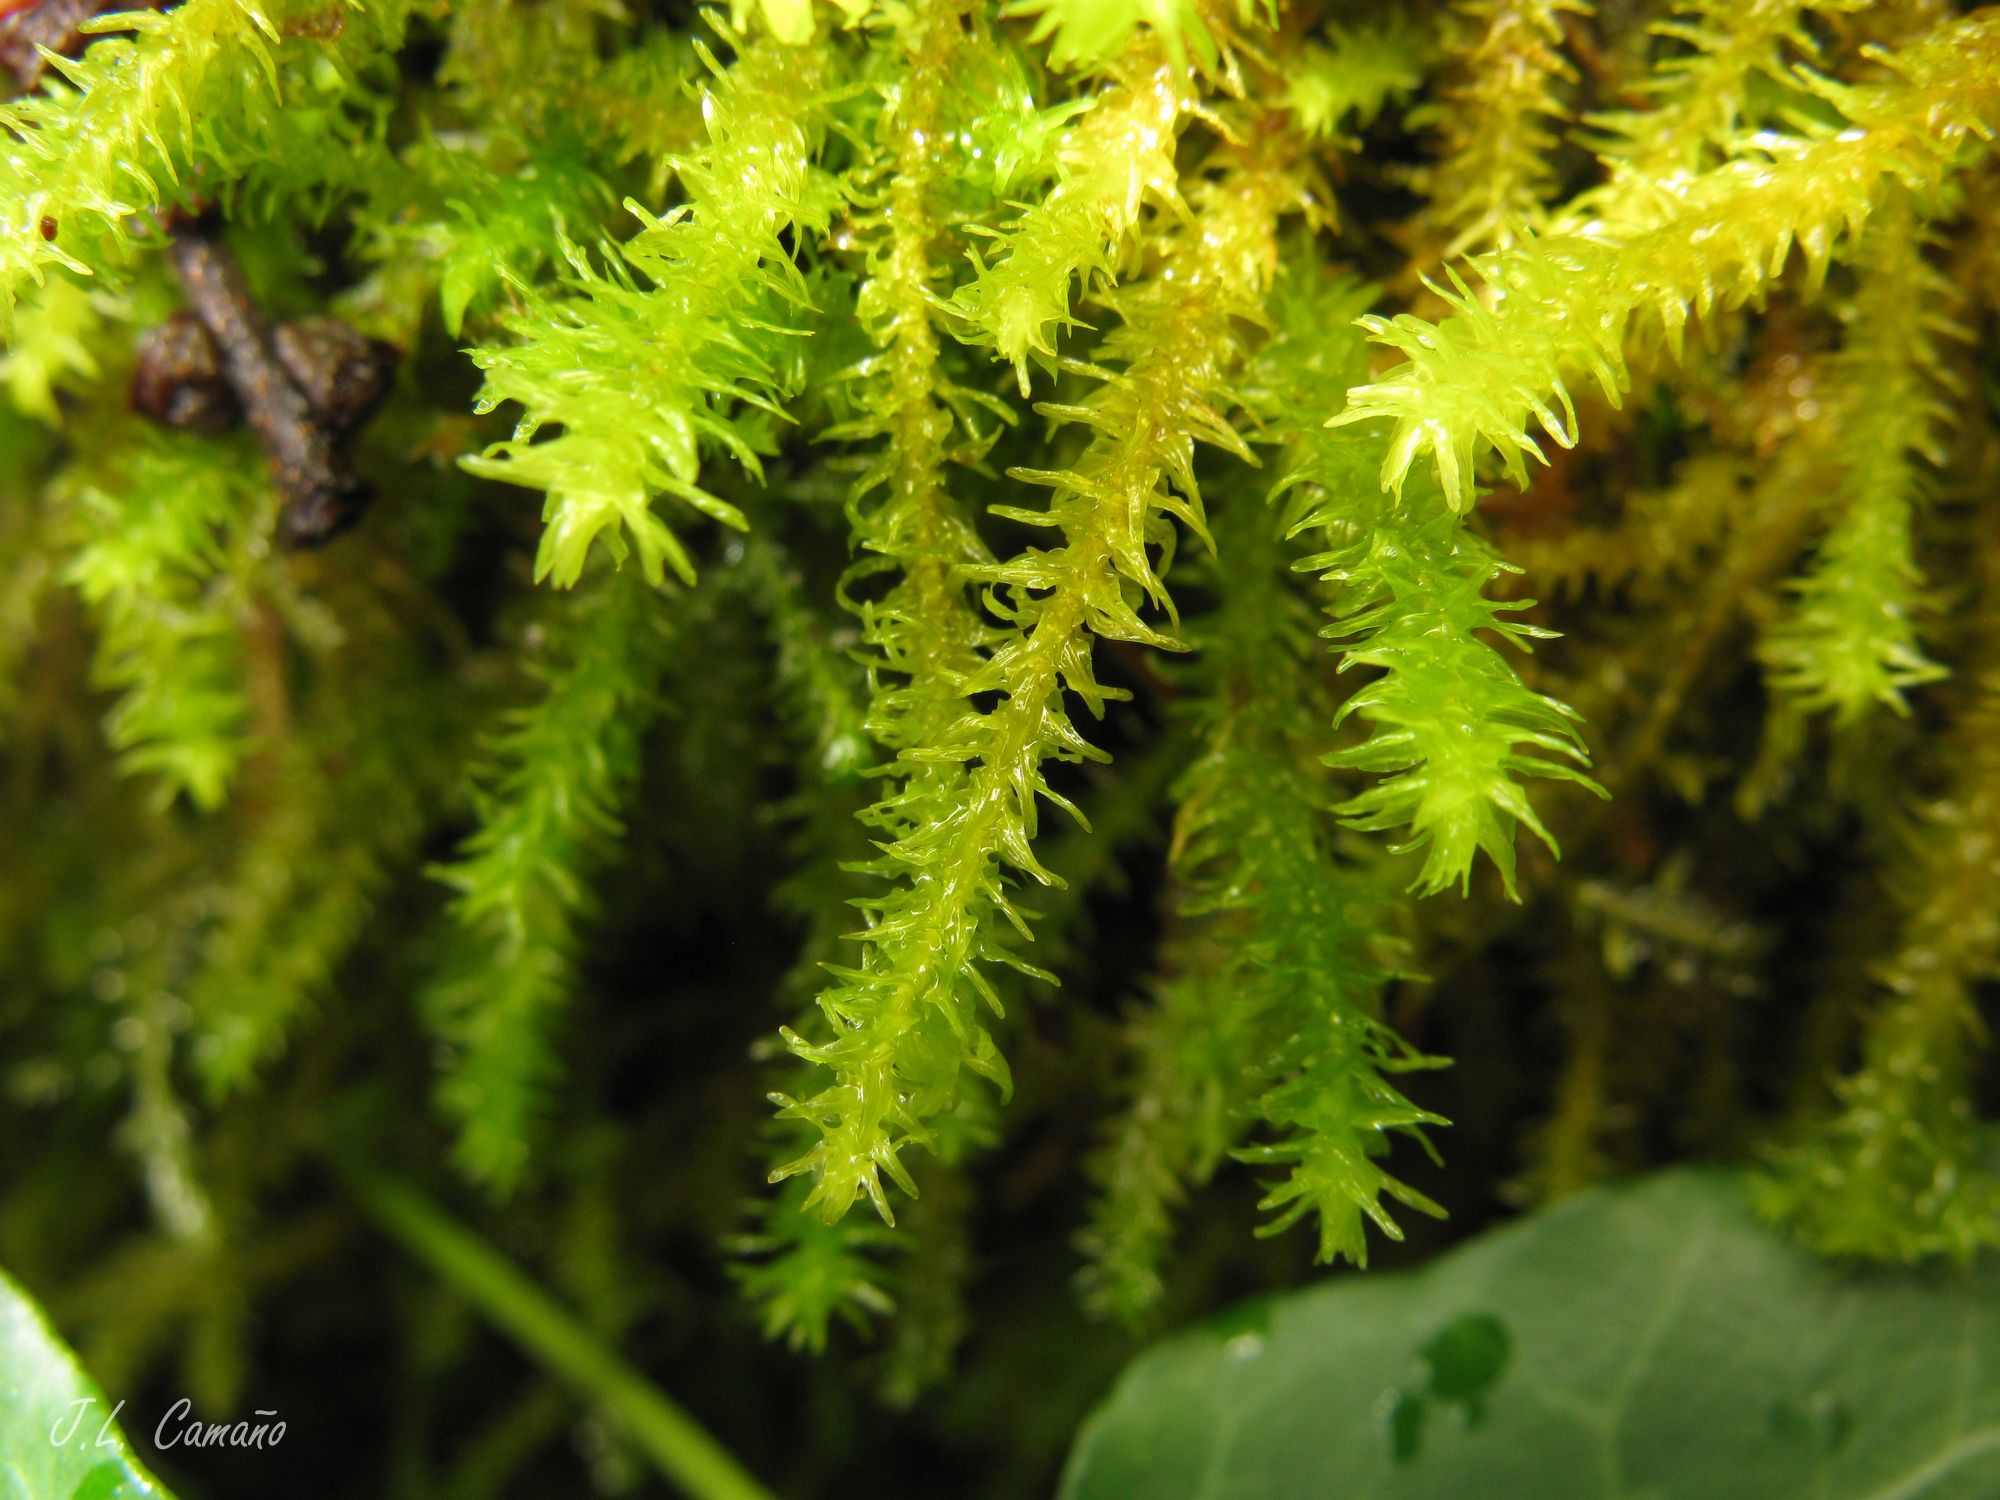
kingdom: Plantae
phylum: Bryophyta
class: Bryopsida
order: Hypnales
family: Anomodontaceae
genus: Anomodon
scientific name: Anomodon viticulosus
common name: Tall anomodon
